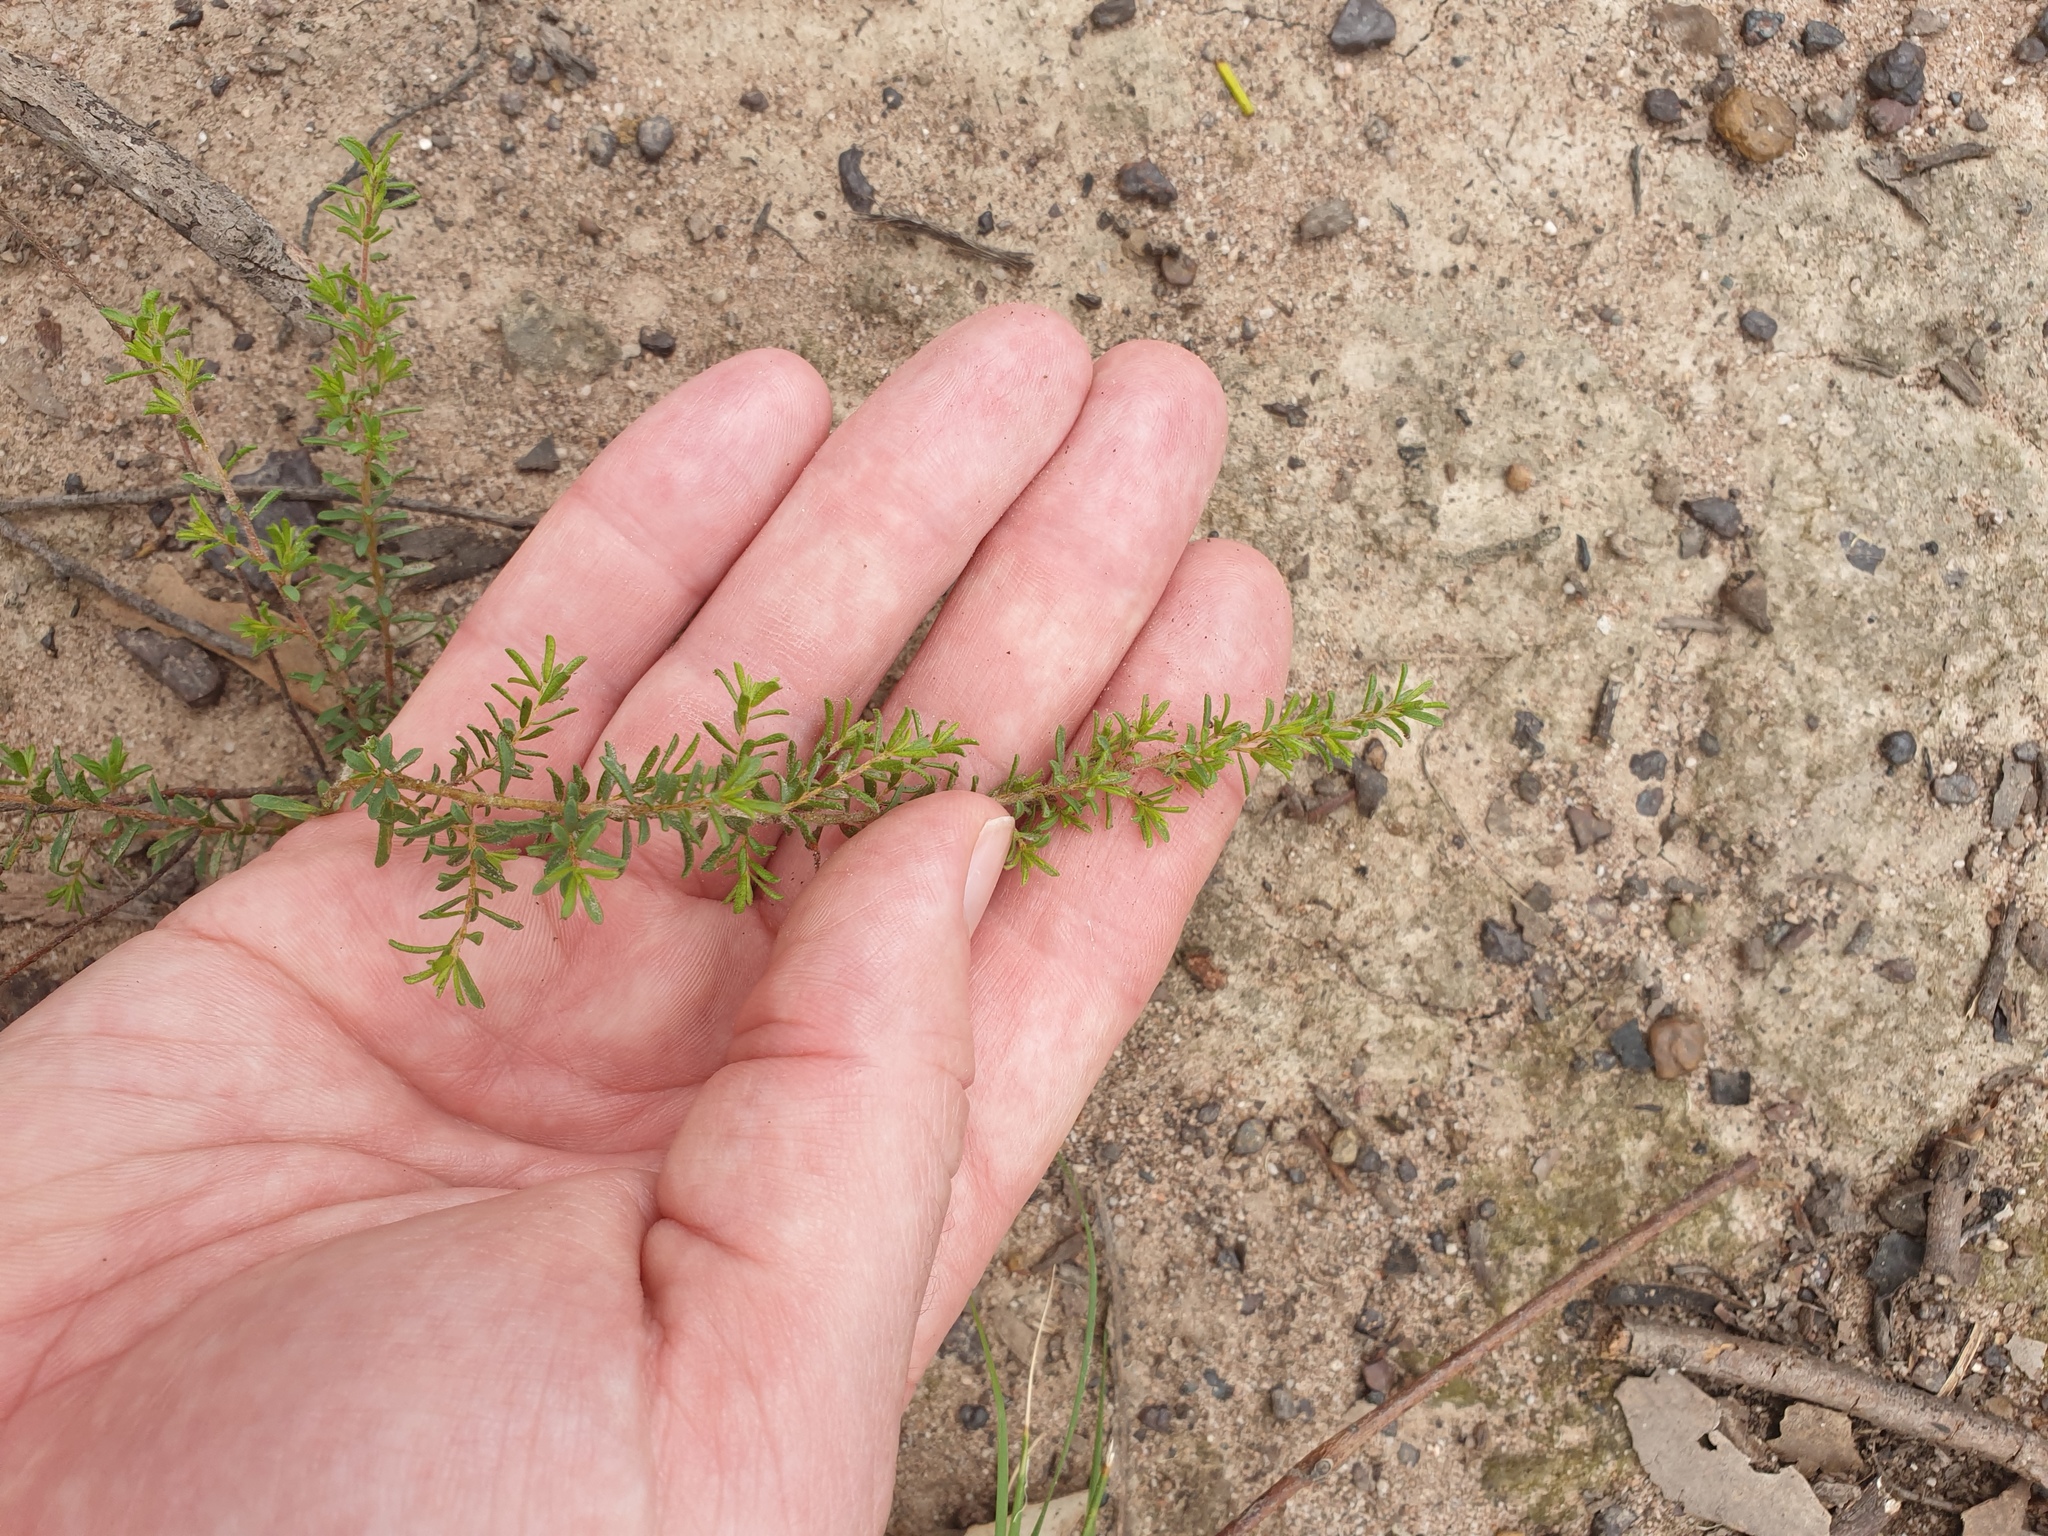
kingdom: Plantae
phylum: Tracheophyta
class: Magnoliopsida
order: Fabales
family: Fabaceae
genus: Pultenaea
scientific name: Pultenaea villosa
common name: Bronze bush-pea
